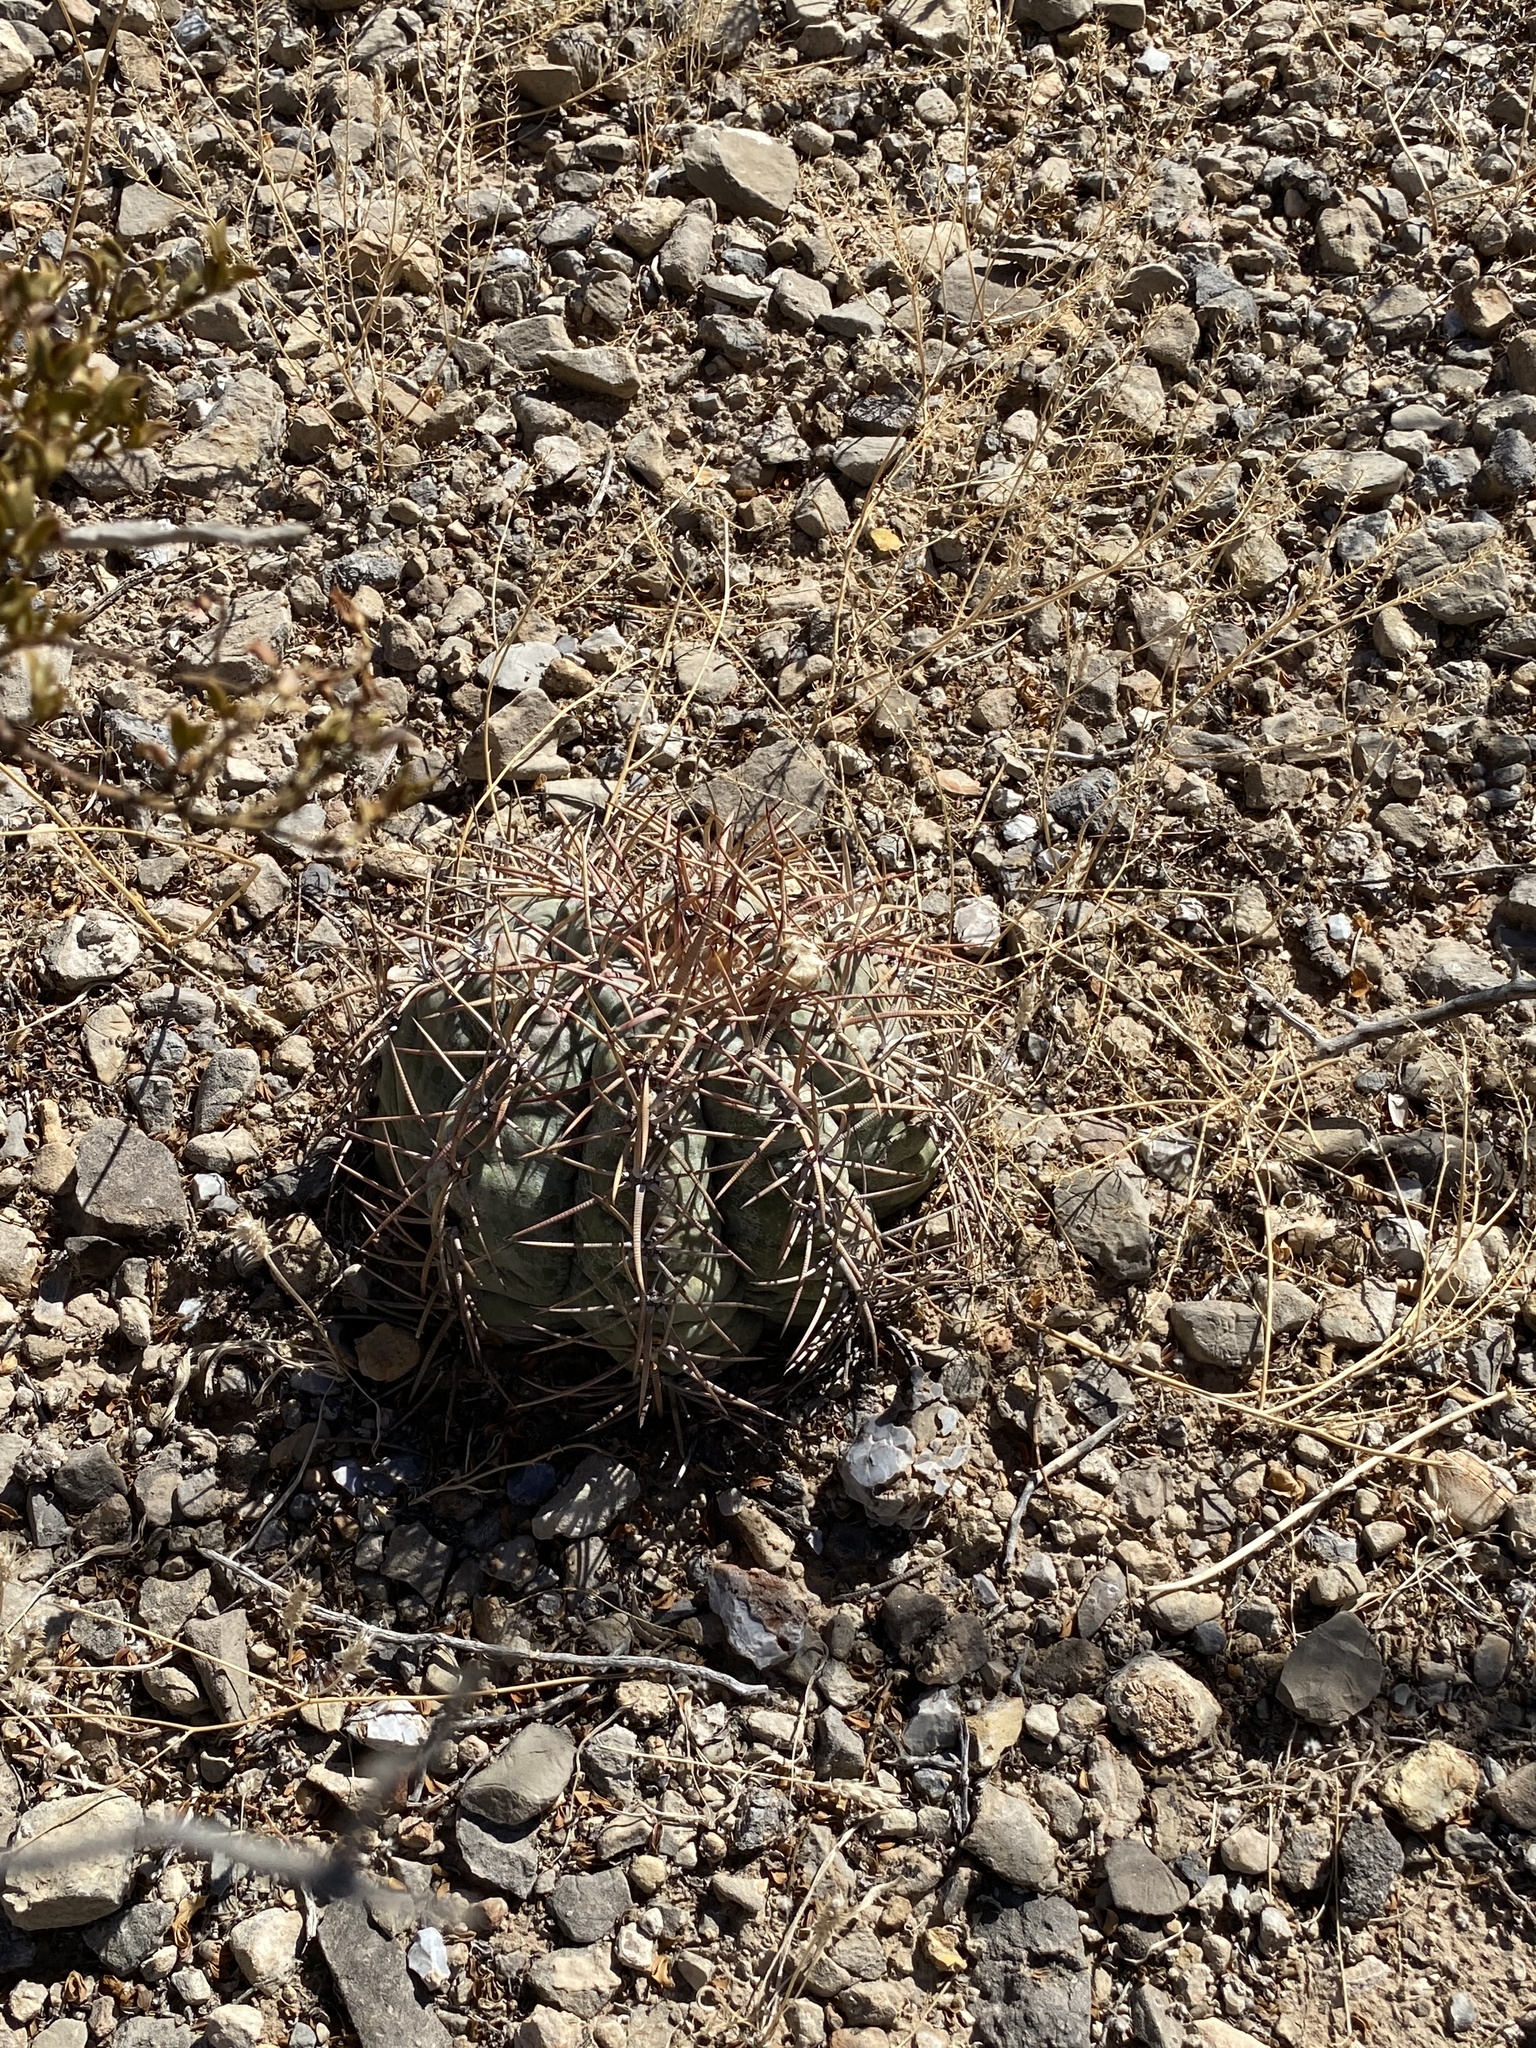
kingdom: Plantae
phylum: Tracheophyta
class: Magnoliopsida
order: Caryophyllales
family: Cactaceae
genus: Echinocactus
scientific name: Echinocactus horizonthalonius
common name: Devilshead
